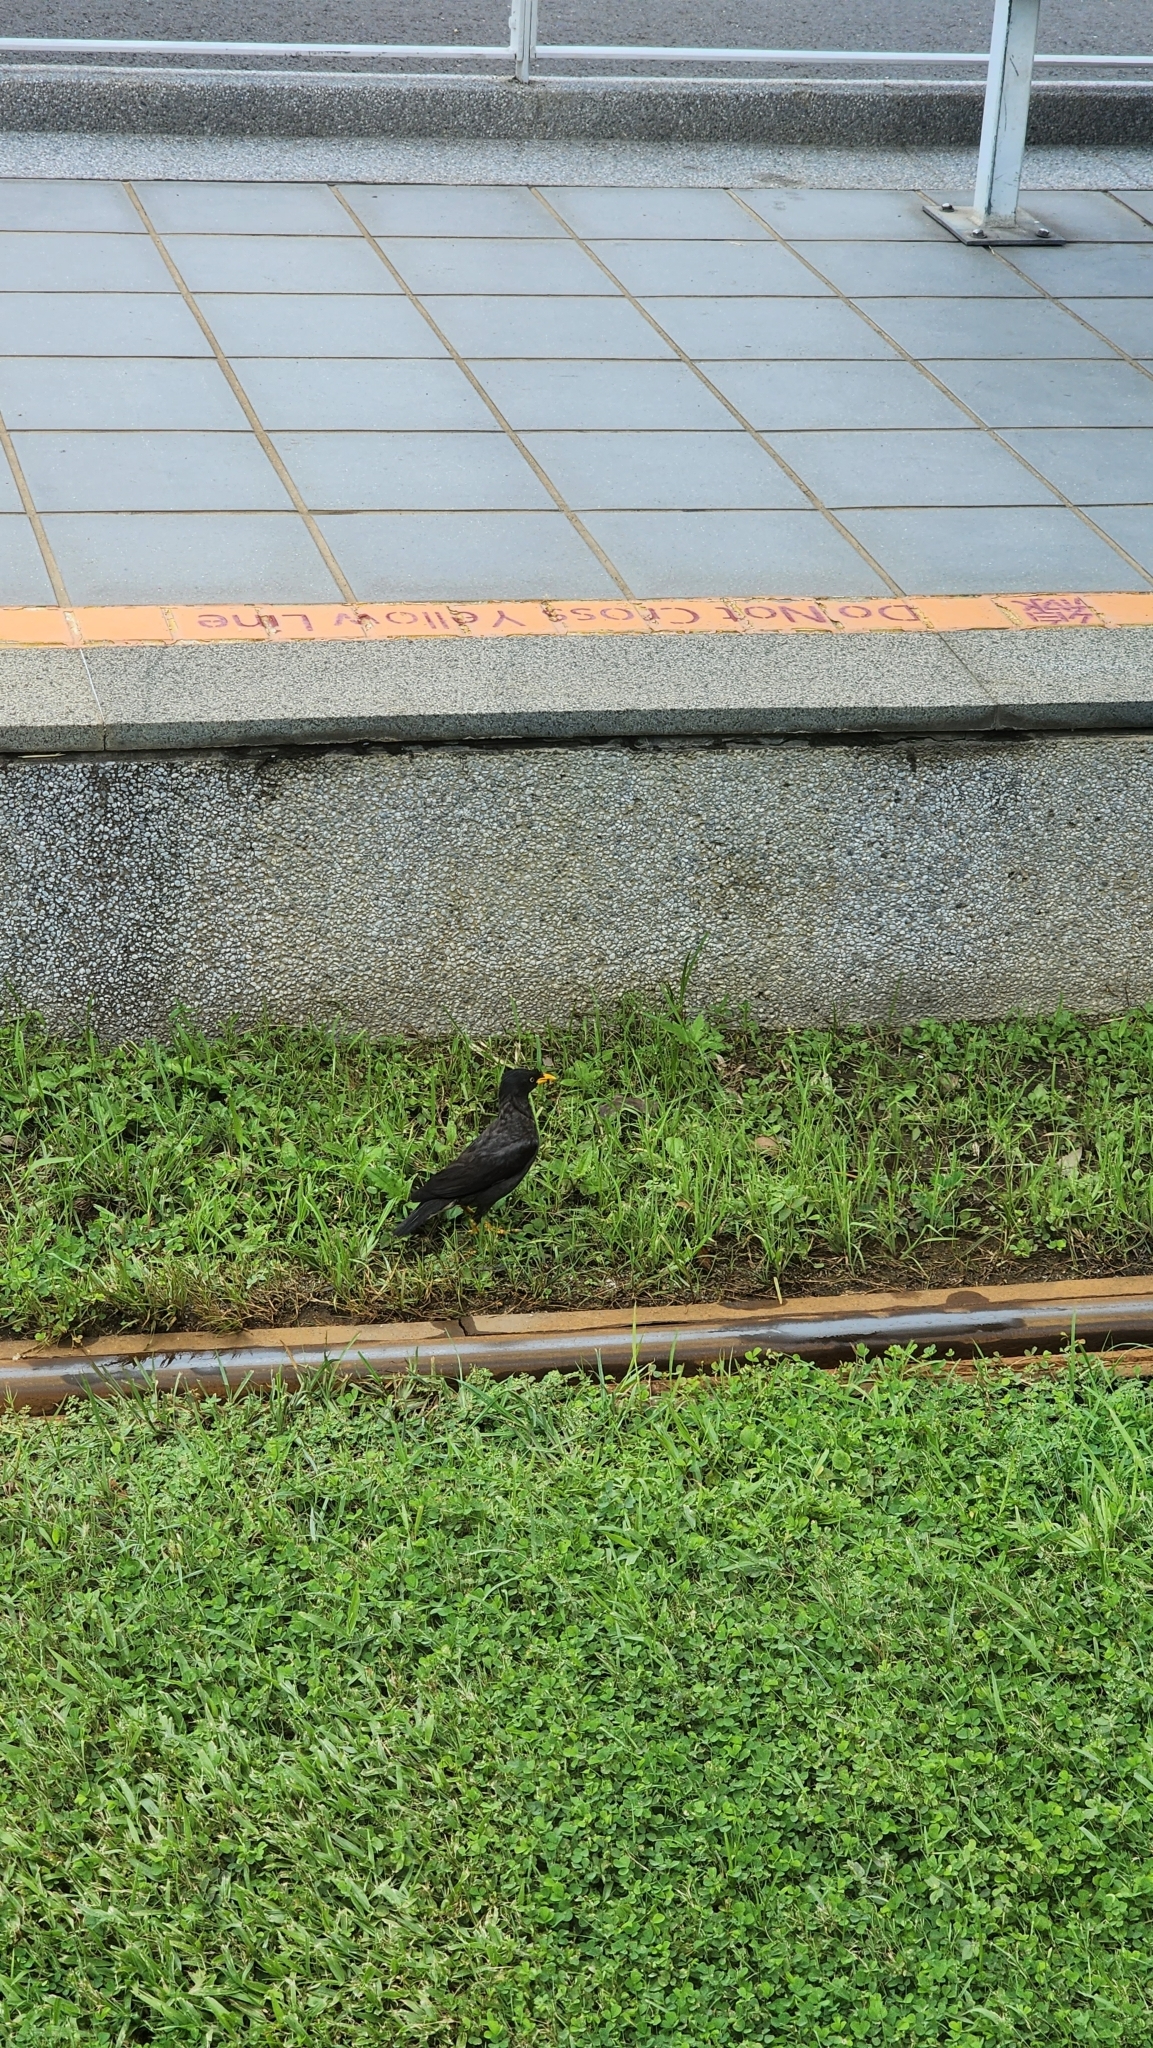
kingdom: Animalia
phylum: Chordata
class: Aves
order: Passeriformes
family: Sturnidae
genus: Acridotheres
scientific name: Acridotheres javanicus
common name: Javan myna
